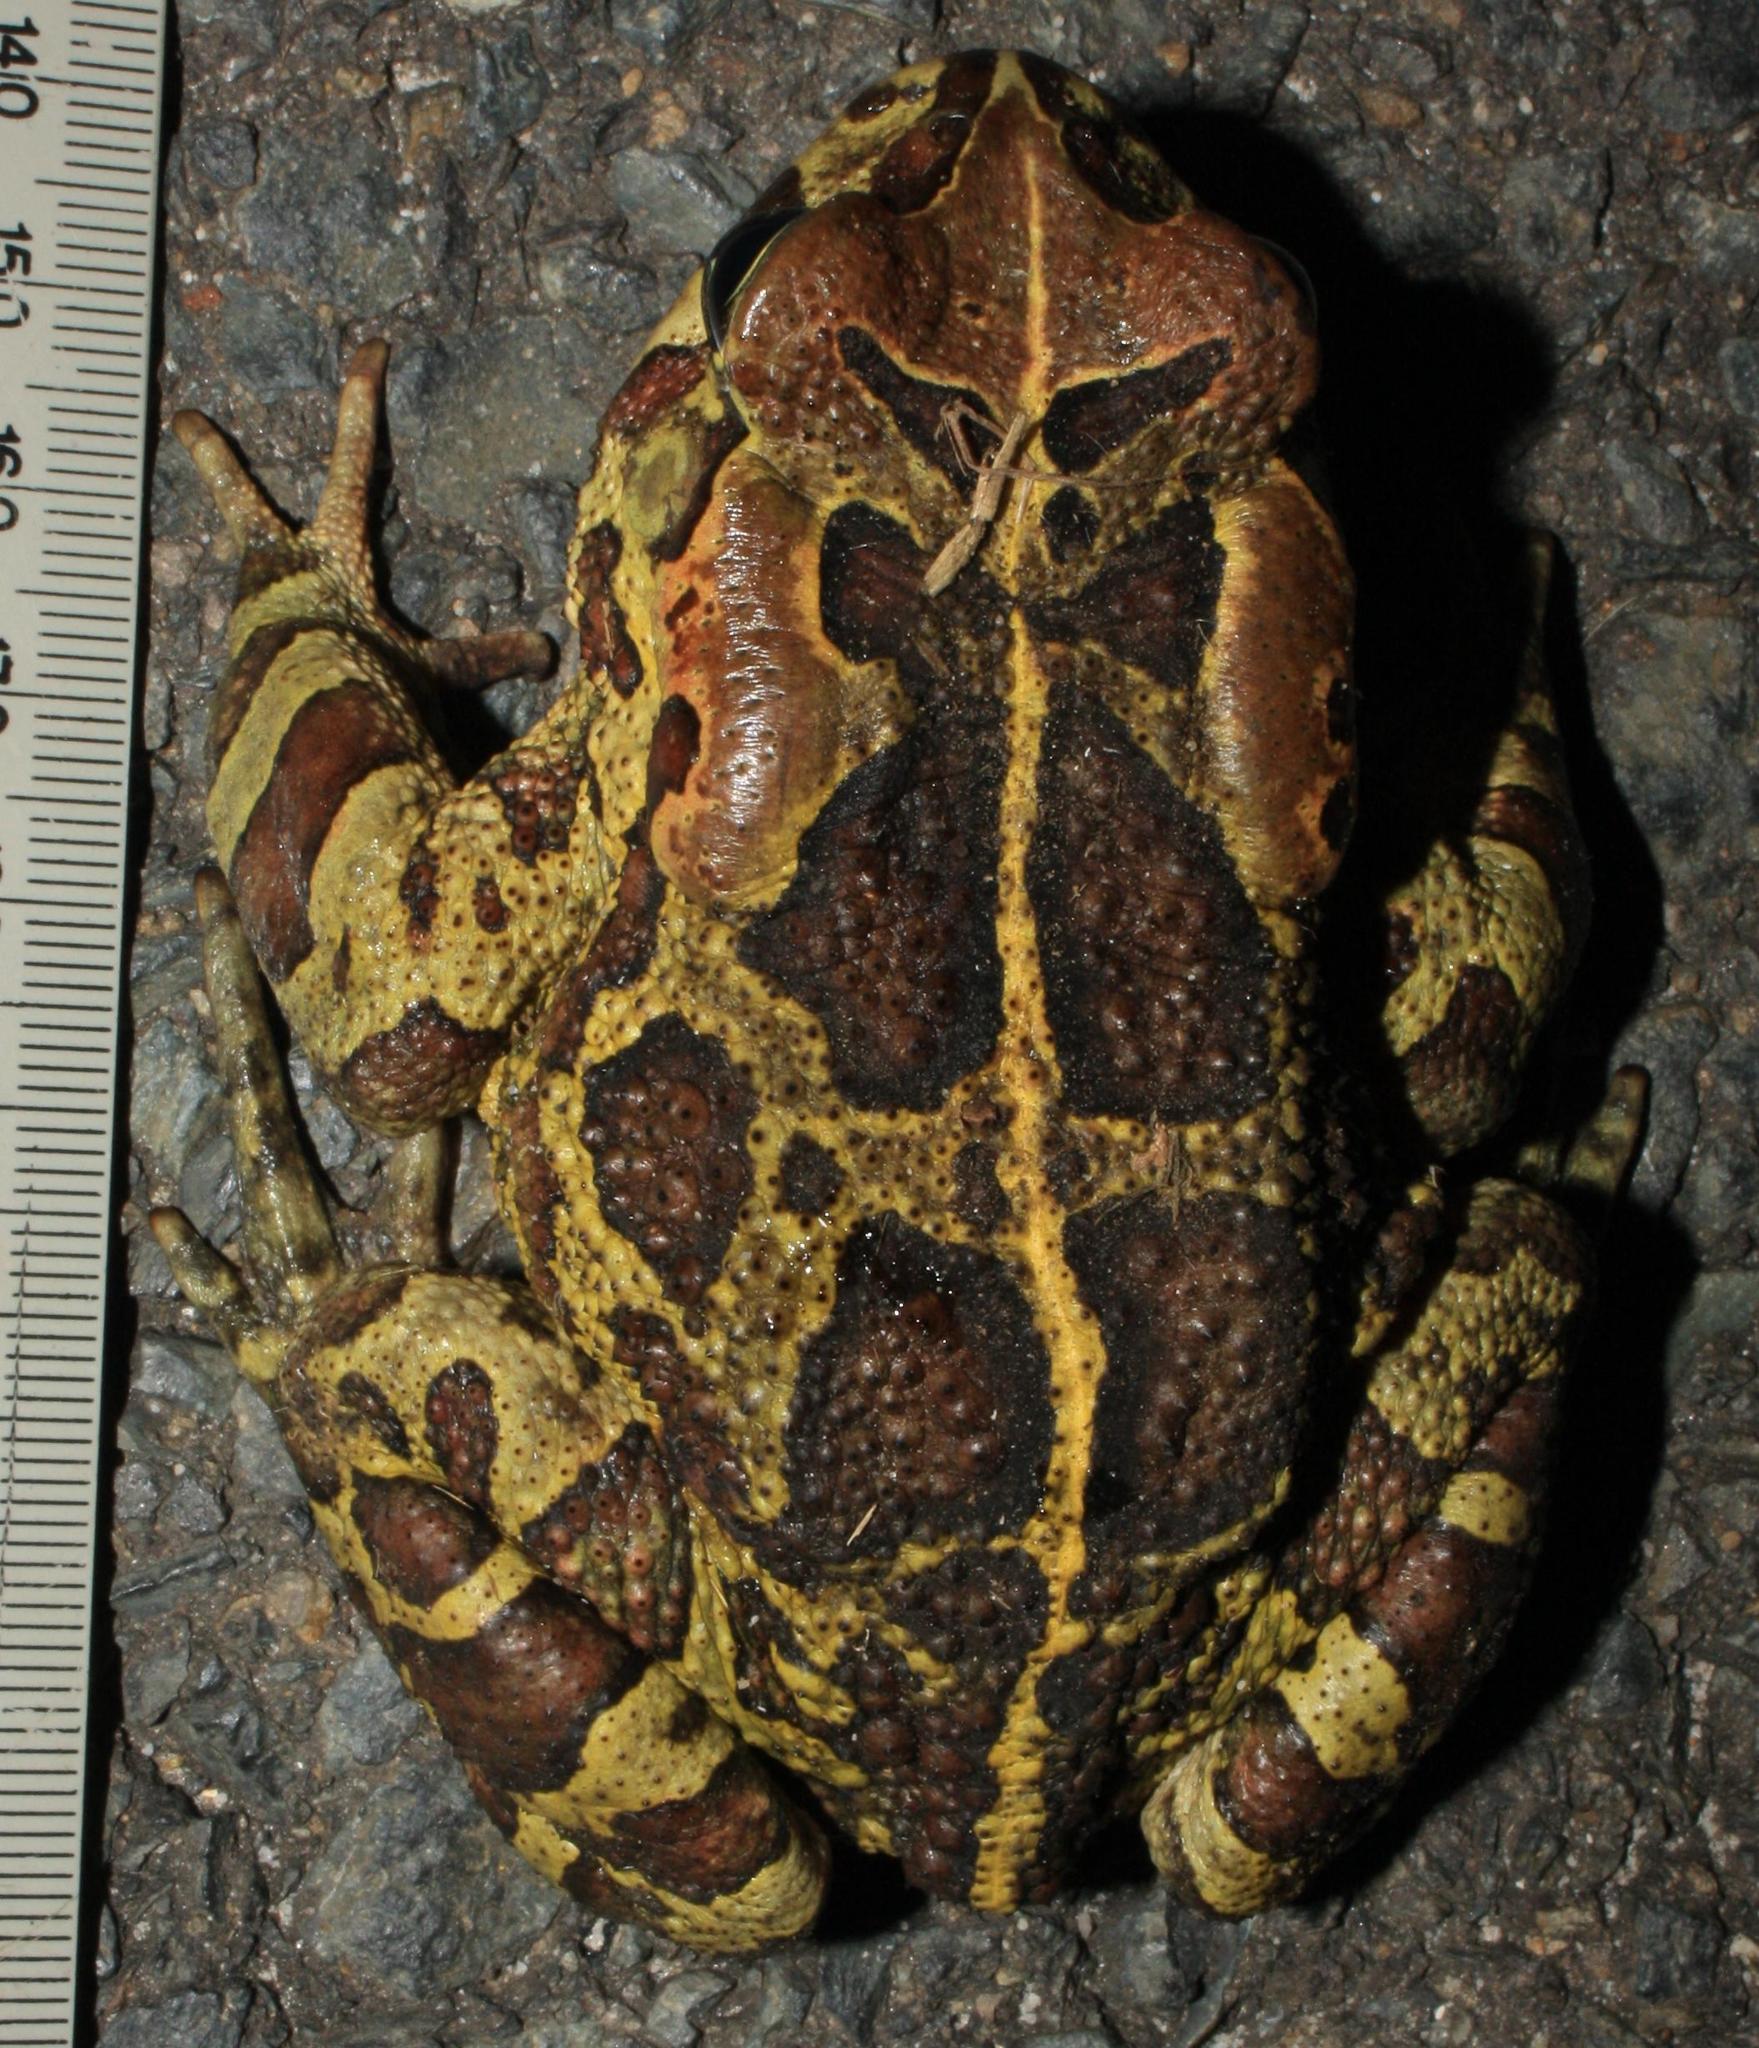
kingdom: Animalia
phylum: Chordata
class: Amphibia
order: Anura
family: Bufonidae
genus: Sclerophrys
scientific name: Sclerophrys pantherina
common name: Panther toad
